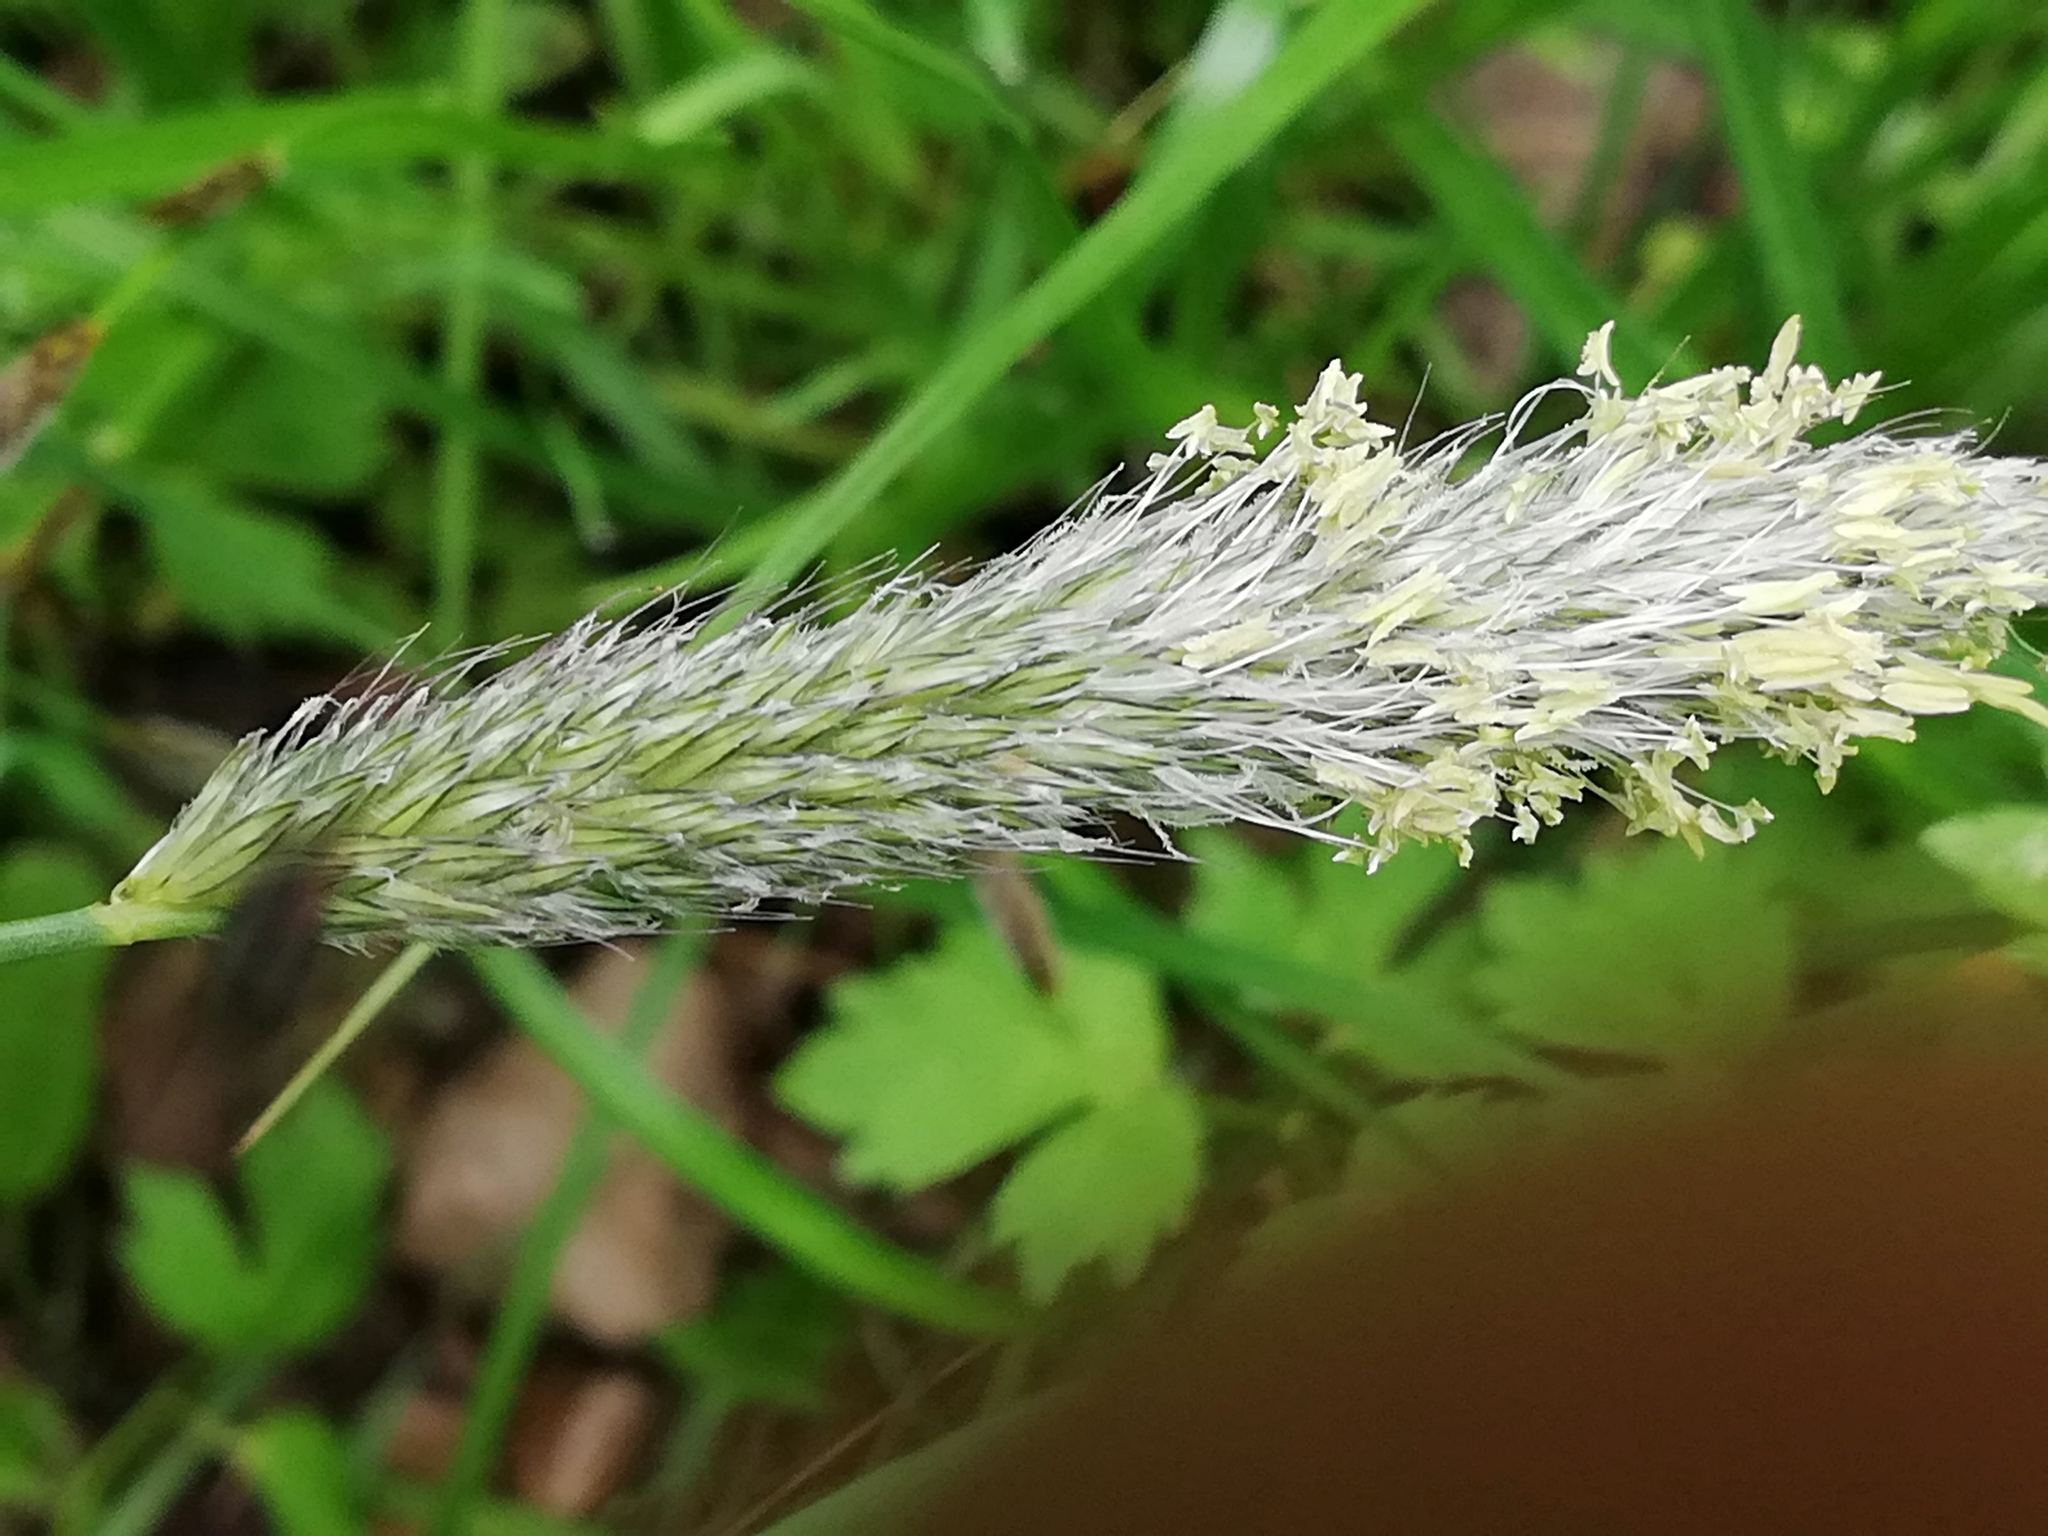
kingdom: Plantae
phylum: Tracheophyta
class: Liliopsida
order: Poales
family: Poaceae
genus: Alopecurus
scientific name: Alopecurus pratensis
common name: Meadow foxtail
